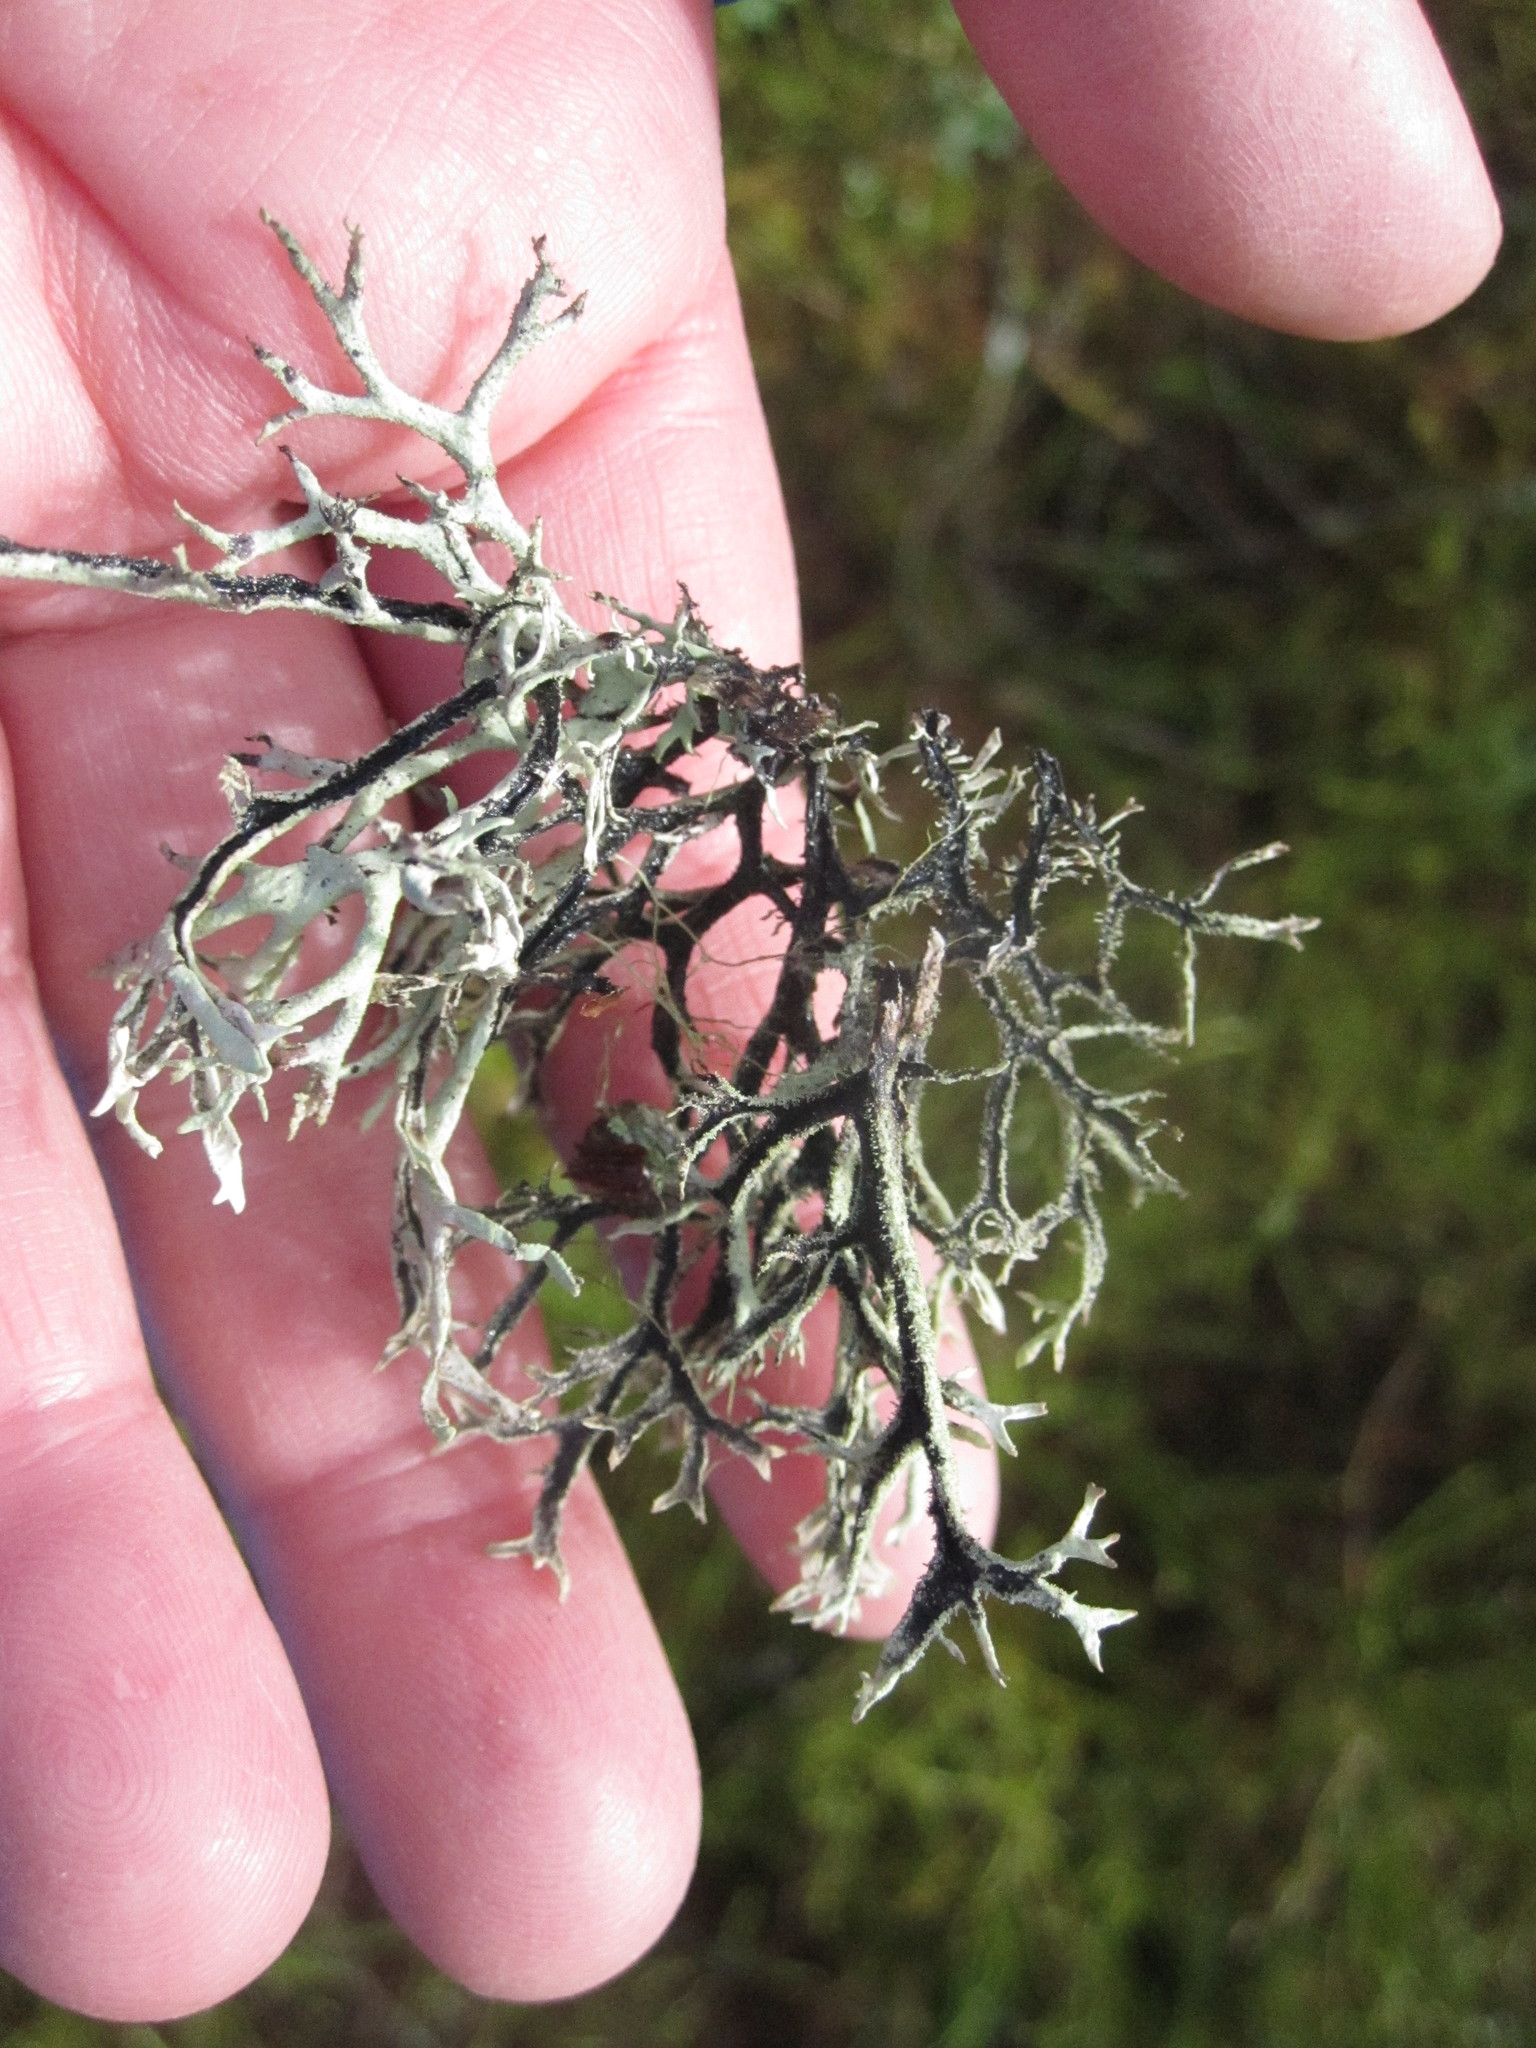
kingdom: Fungi
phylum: Ascomycota
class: Lecanoromycetes
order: Lecanorales
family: Parmeliaceae
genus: Pseudevernia
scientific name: Pseudevernia furfuracea
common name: Tree moss
